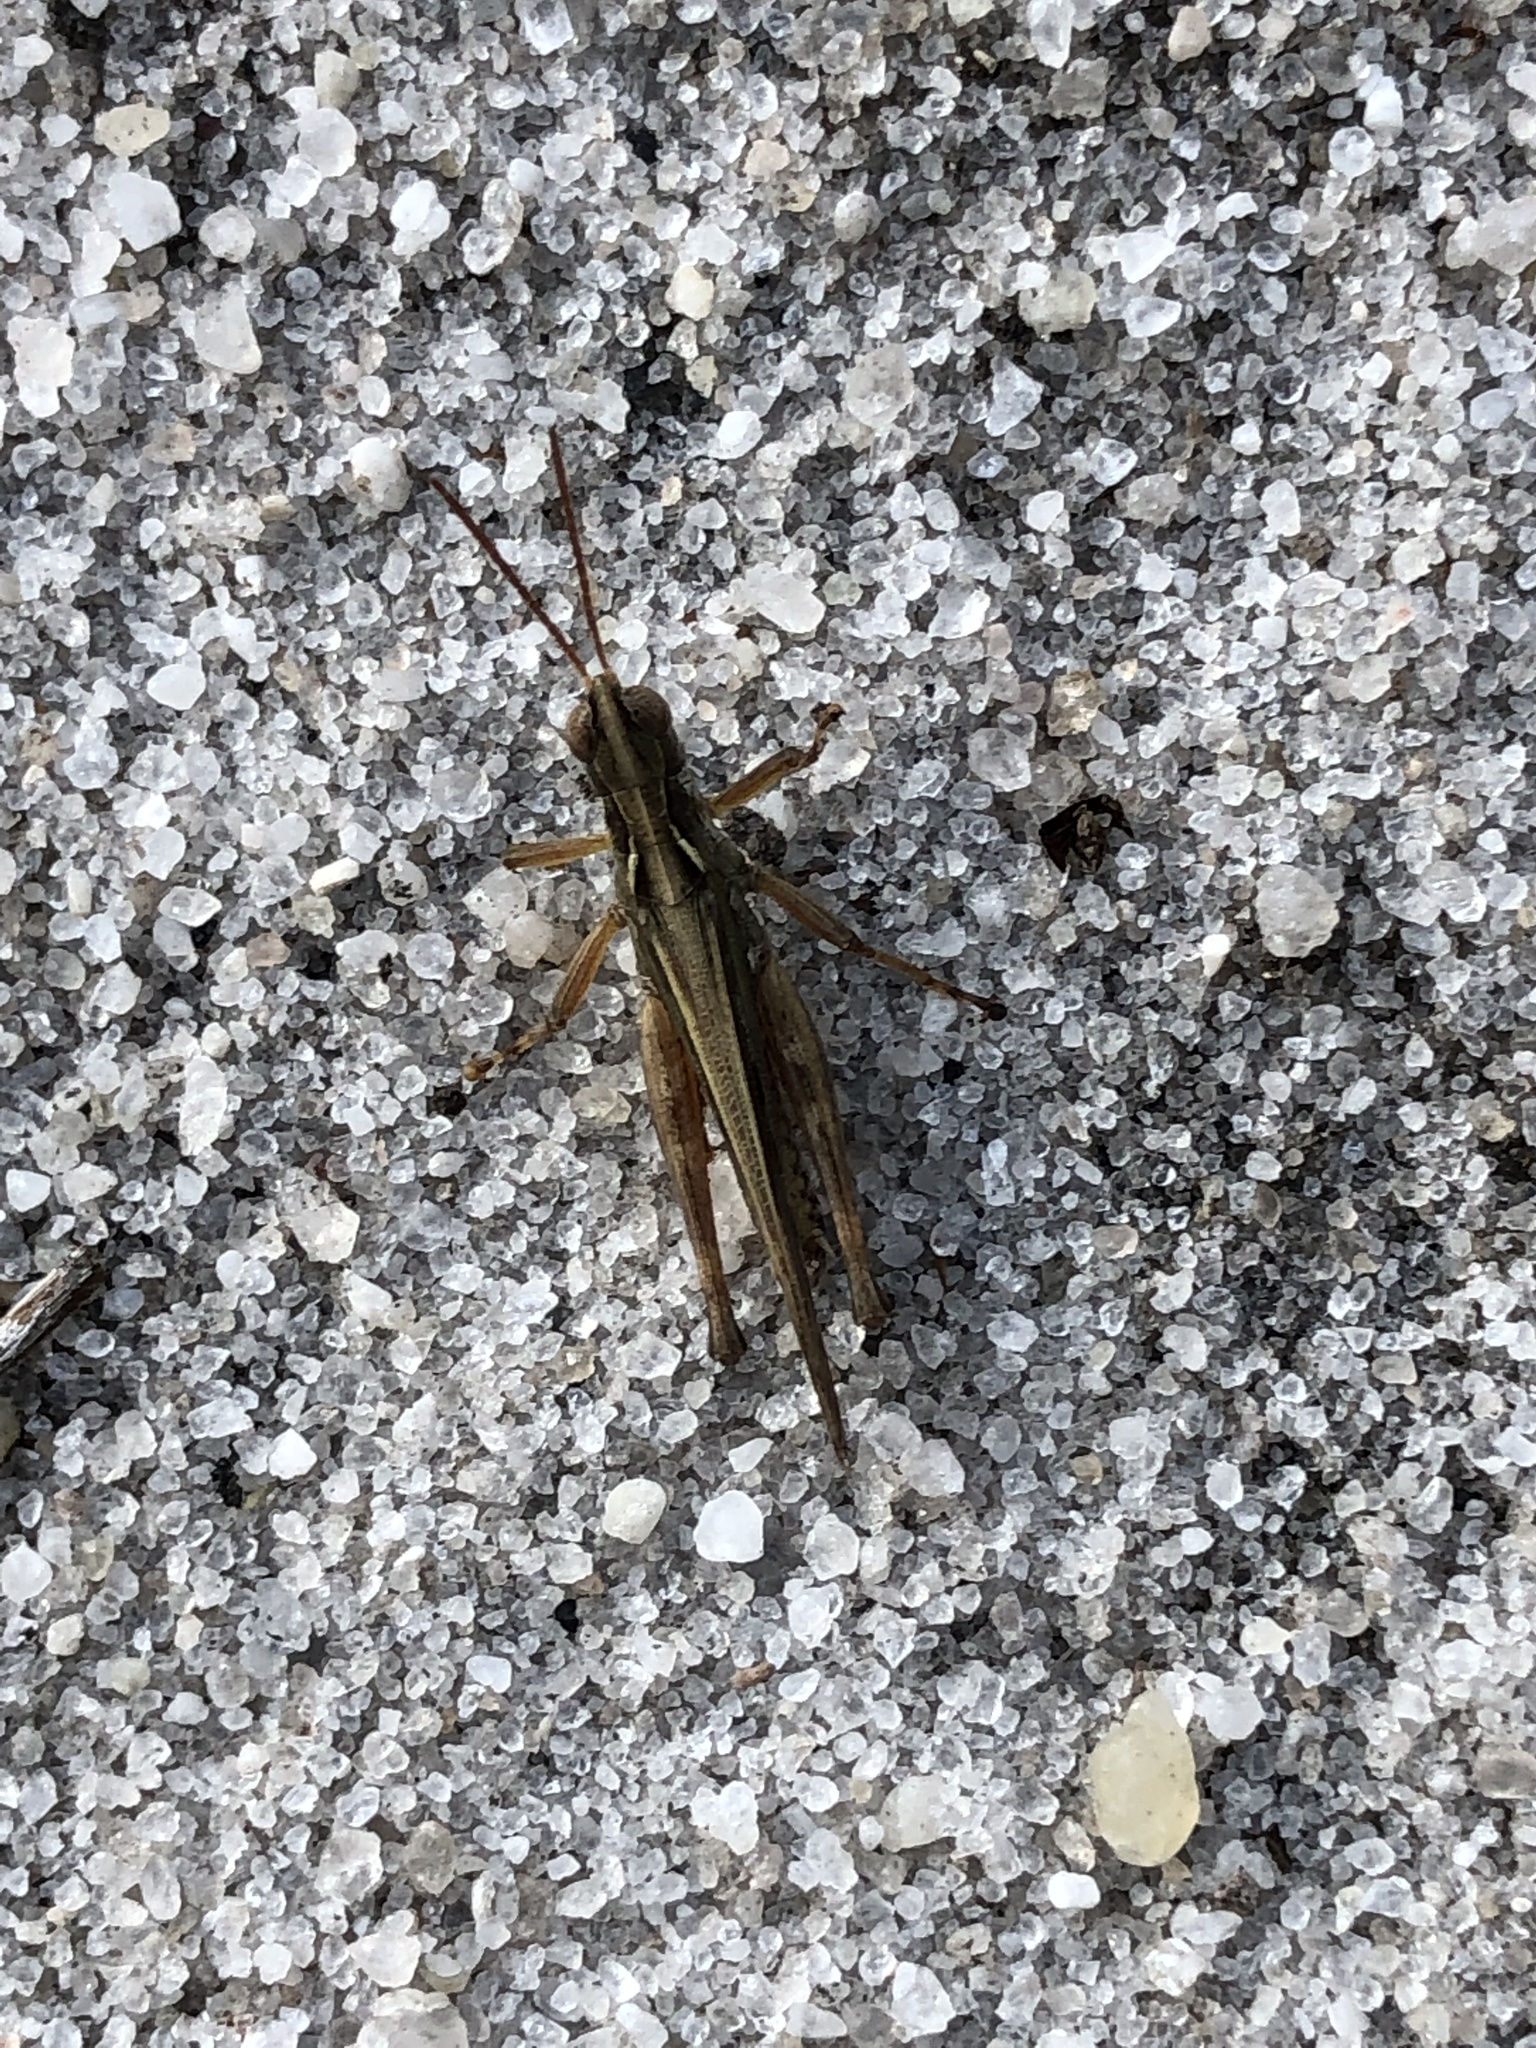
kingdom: Animalia
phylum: Arthropoda
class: Insecta
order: Orthoptera
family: Acrididae
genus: Orphulella
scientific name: Orphulella pelidna
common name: Spotted-wing grasshopper
